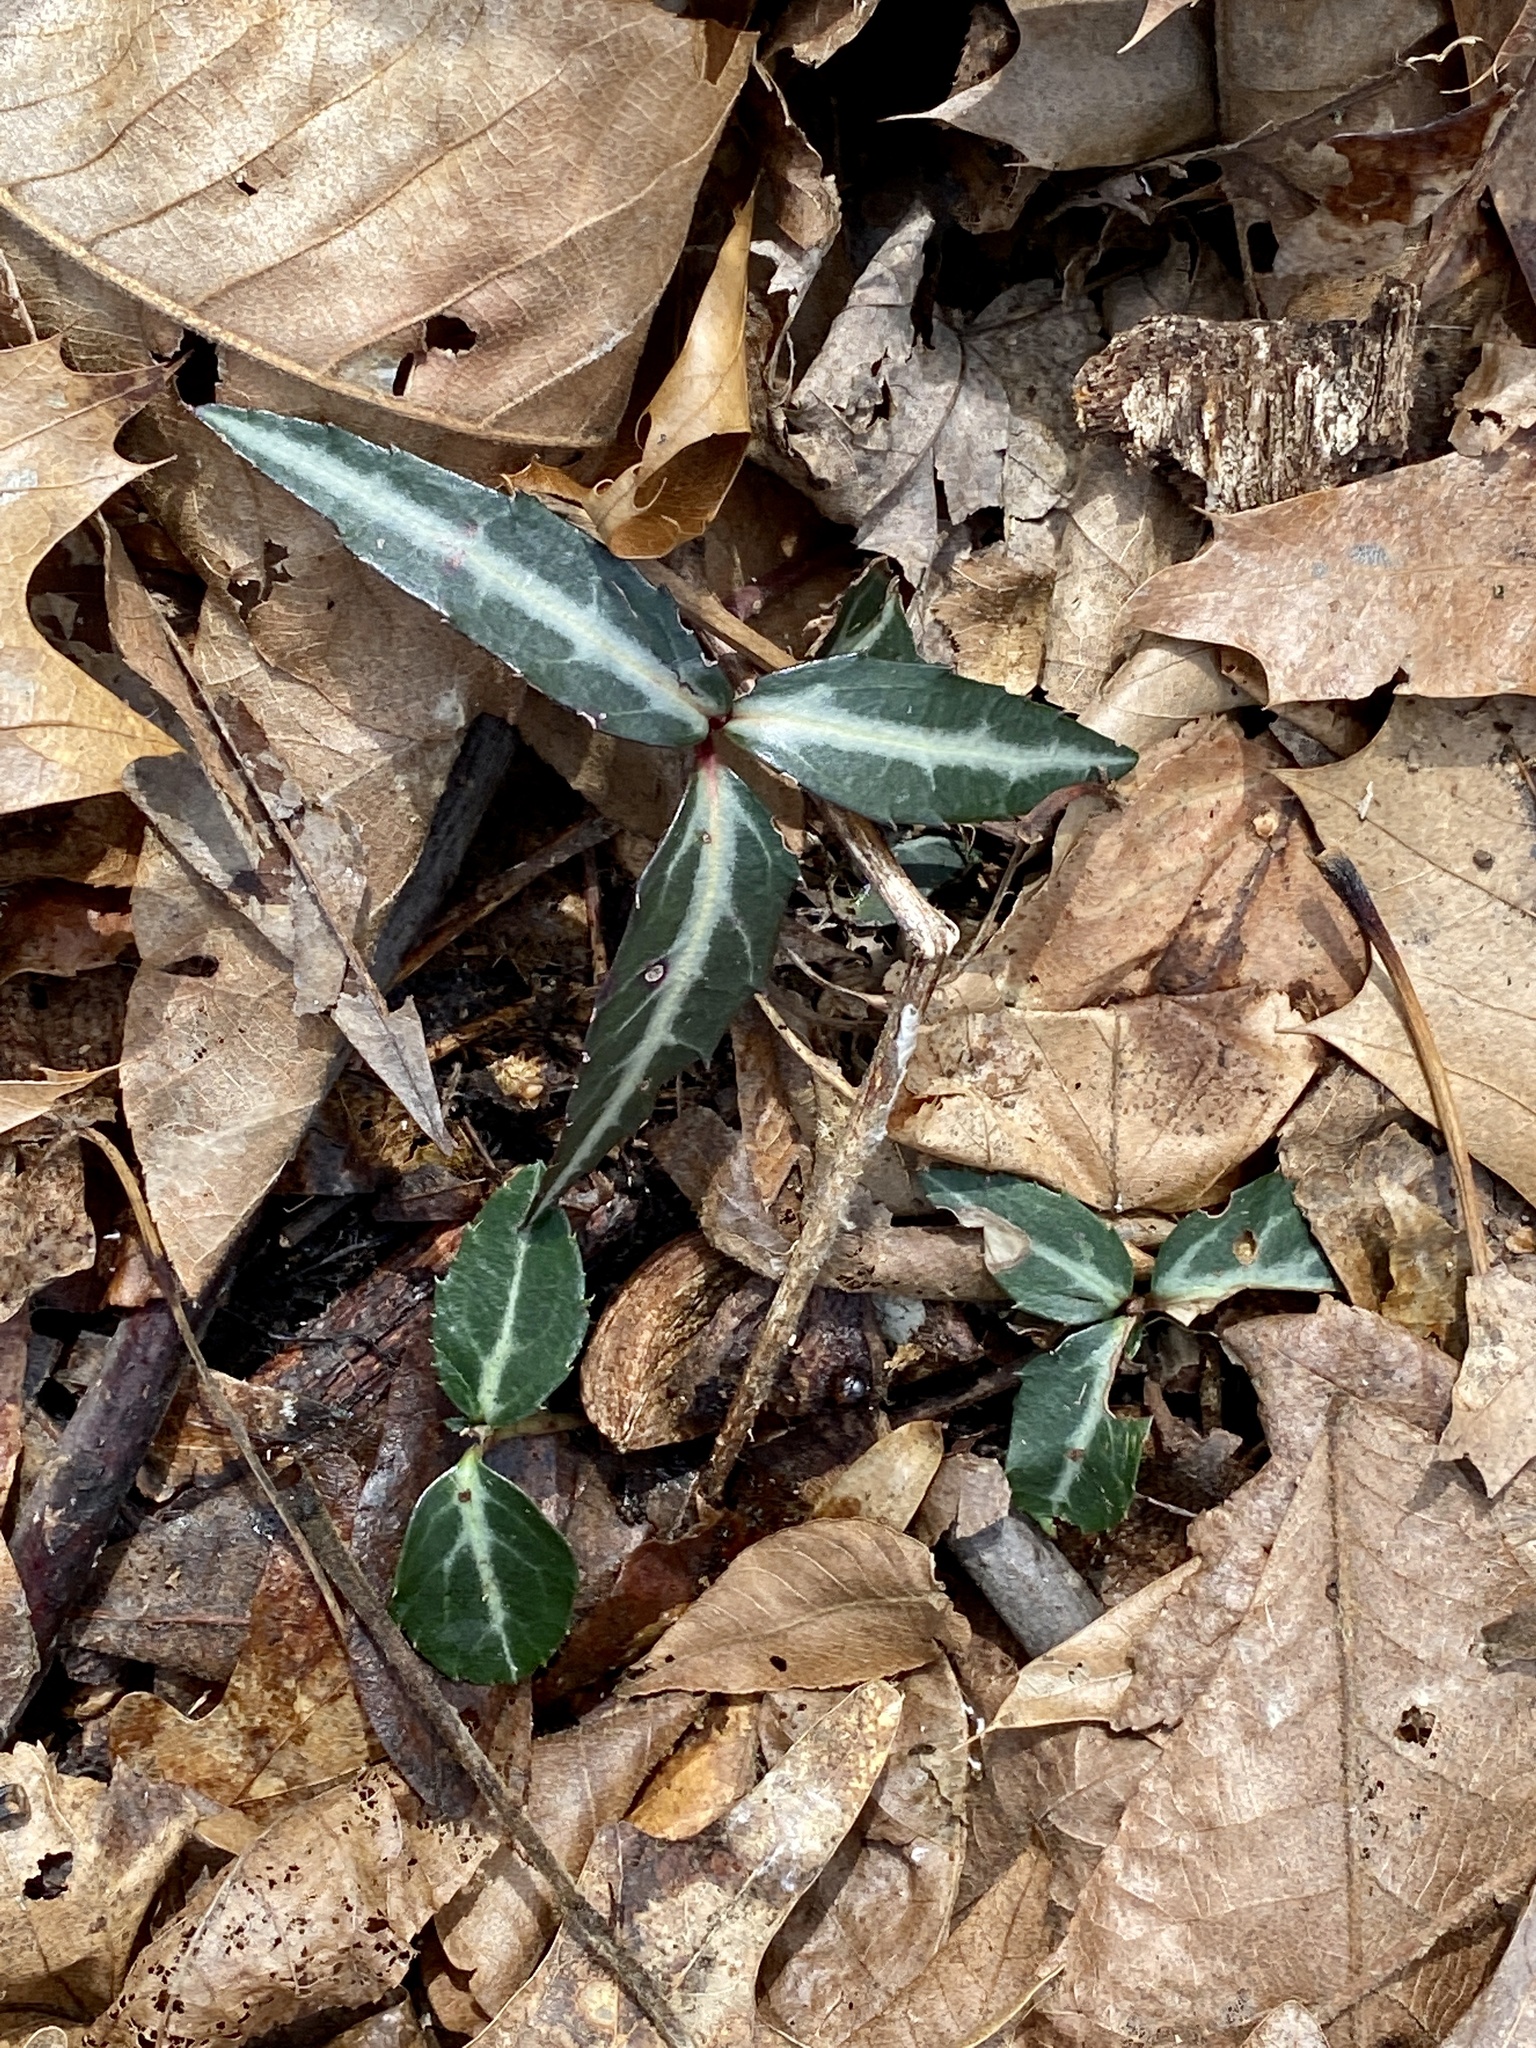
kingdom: Plantae
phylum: Tracheophyta
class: Magnoliopsida
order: Ericales
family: Ericaceae
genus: Chimaphila
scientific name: Chimaphila maculata
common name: Spotted pipsissewa
